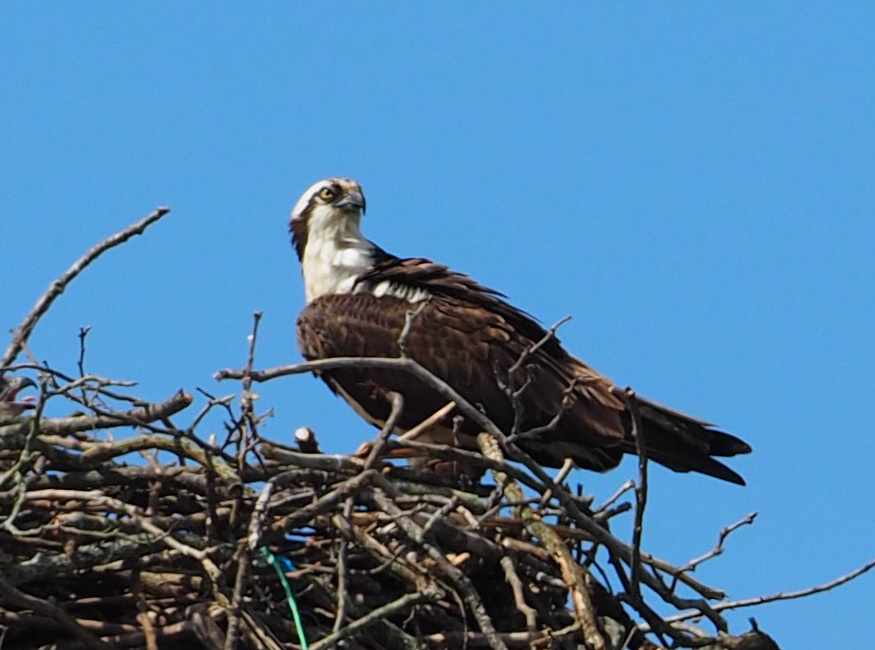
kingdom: Animalia
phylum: Chordata
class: Aves
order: Accipitriformes
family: Pandionidae
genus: Pandion
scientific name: Pandion haliaetus
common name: Osprey
